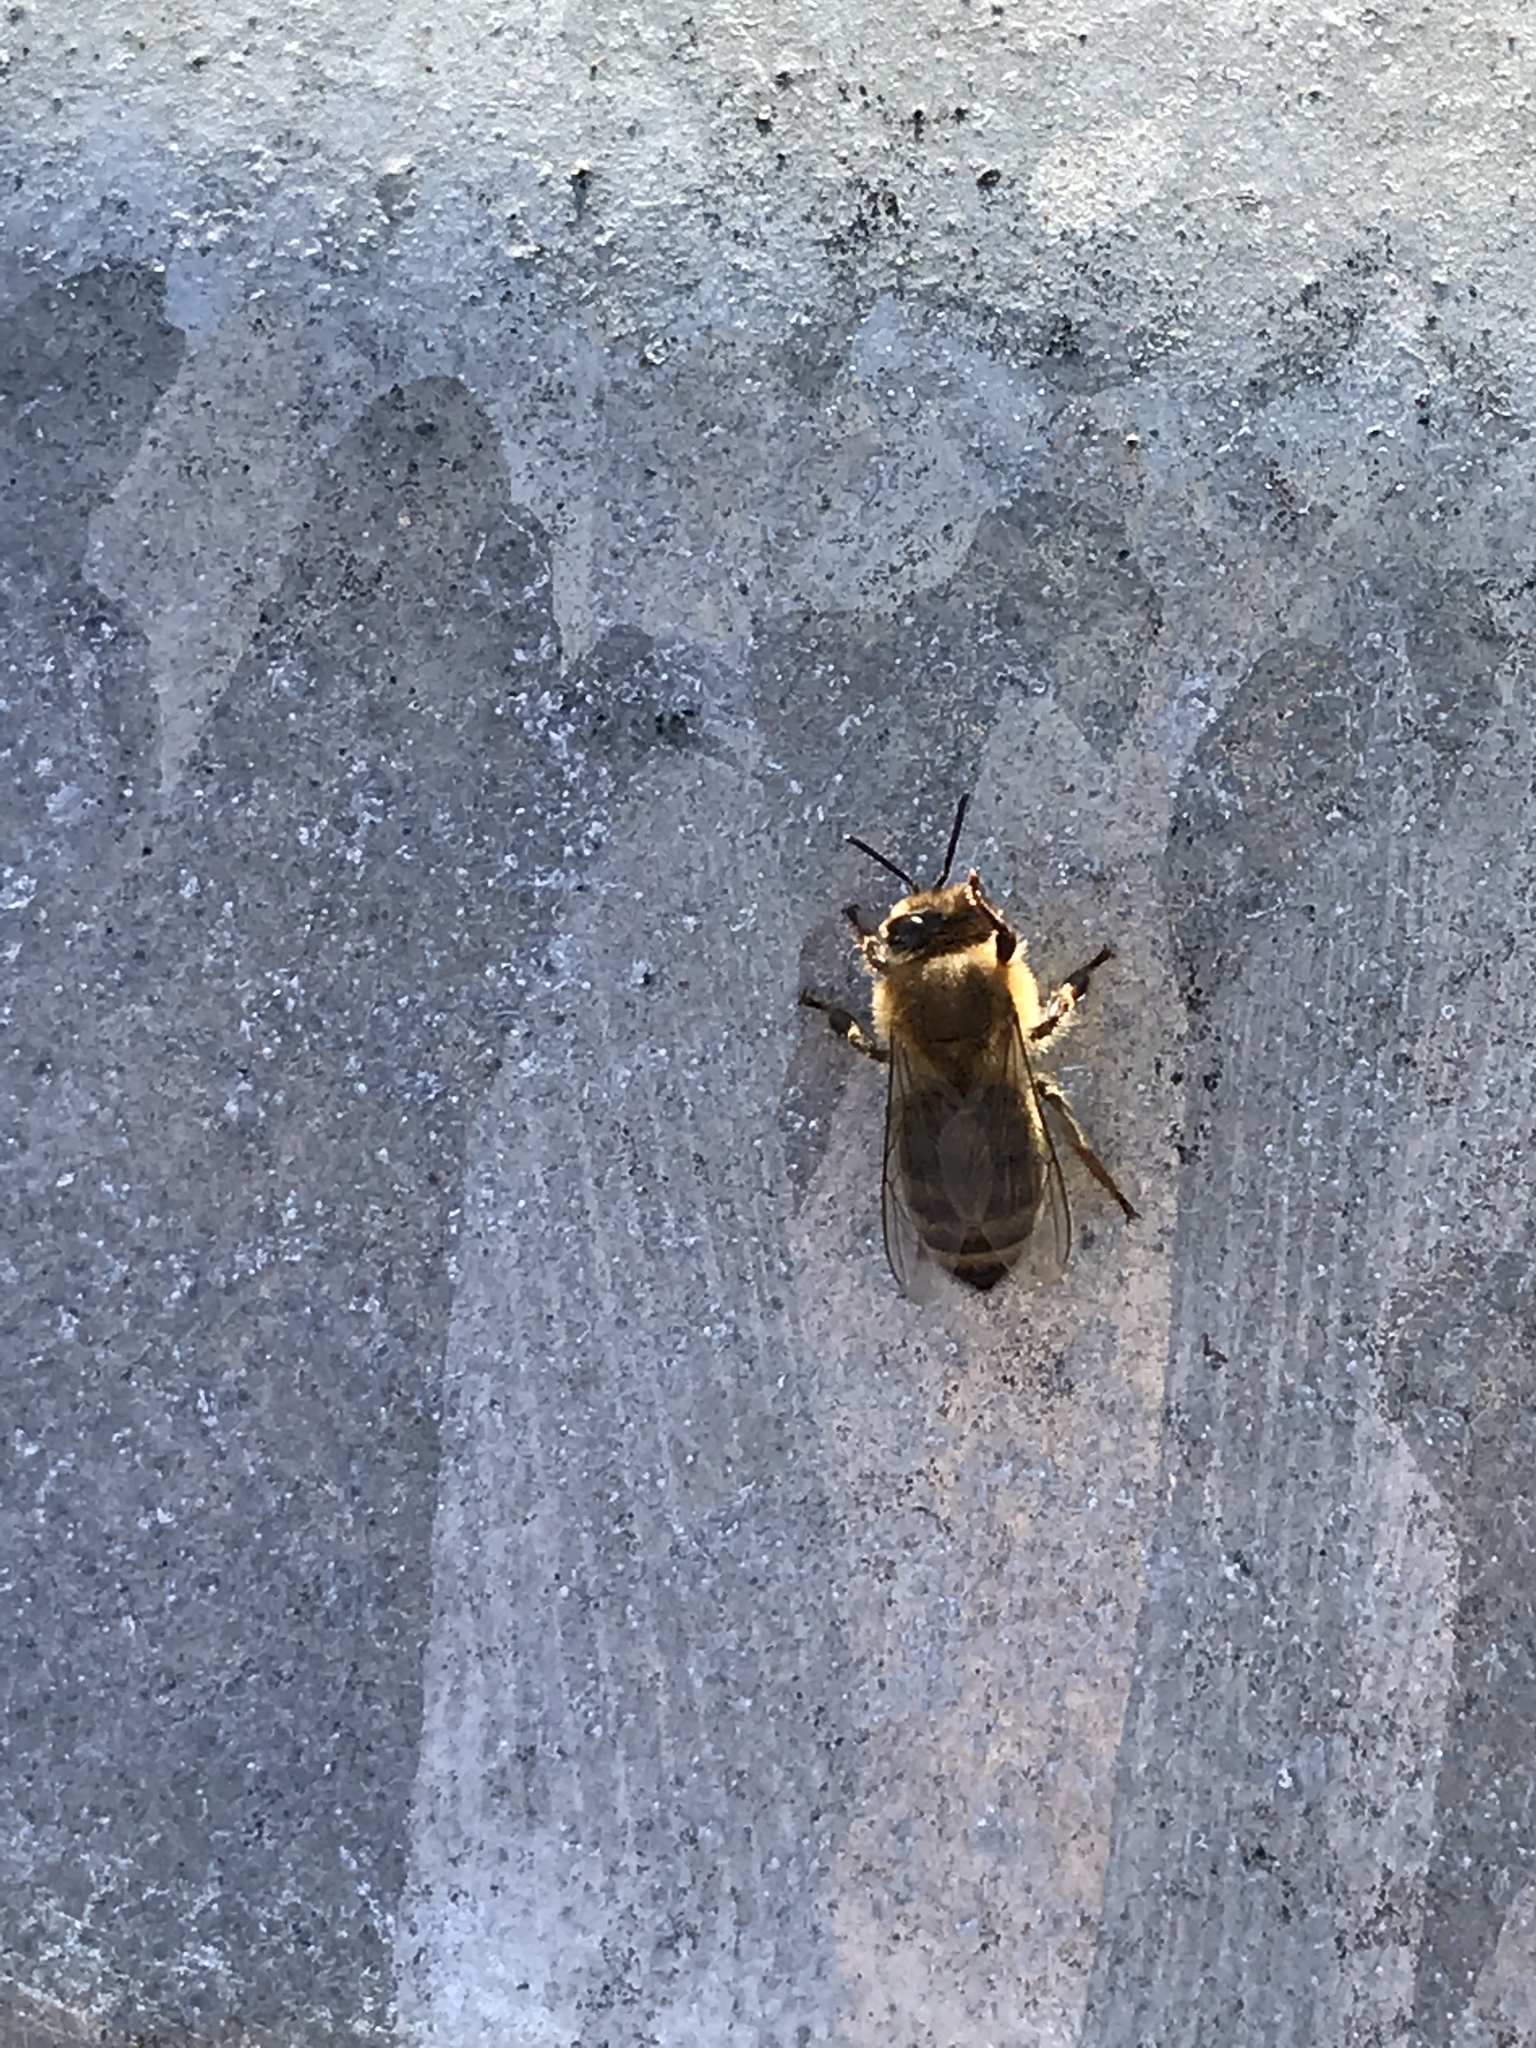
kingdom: Animalia
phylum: Arthropoda
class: Insecta
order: Hymenoptera
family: Apidae
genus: Apis
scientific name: Apis mellifera
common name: Honey bee
